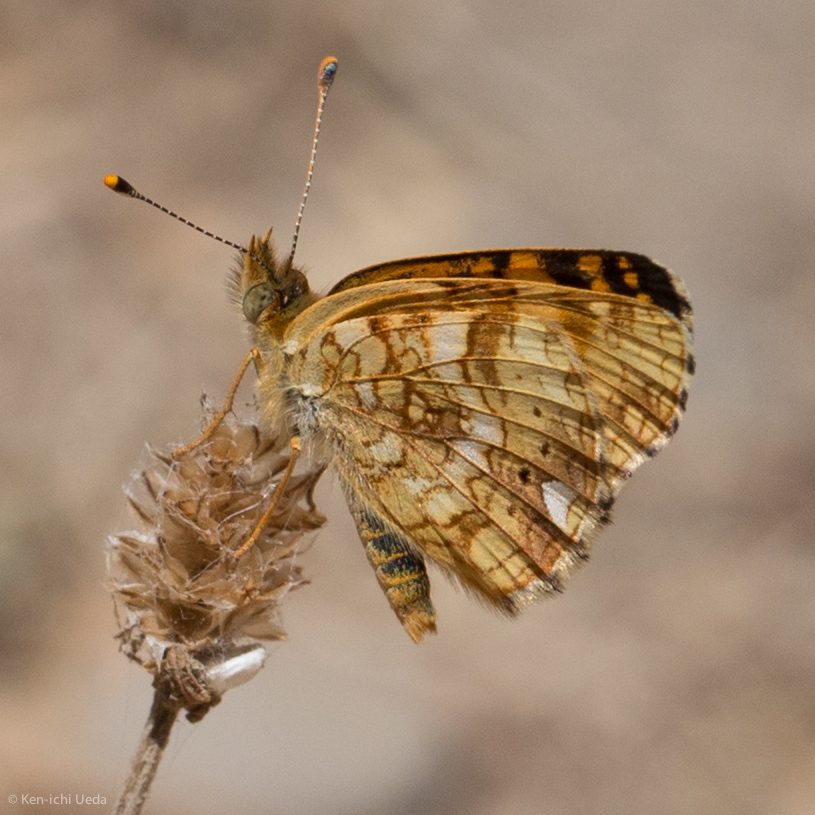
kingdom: Animalia
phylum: Arthropoda
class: Insecta
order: Lepidoptera
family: Nymphalidae
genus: Eresia
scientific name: Eresia aveyrona
